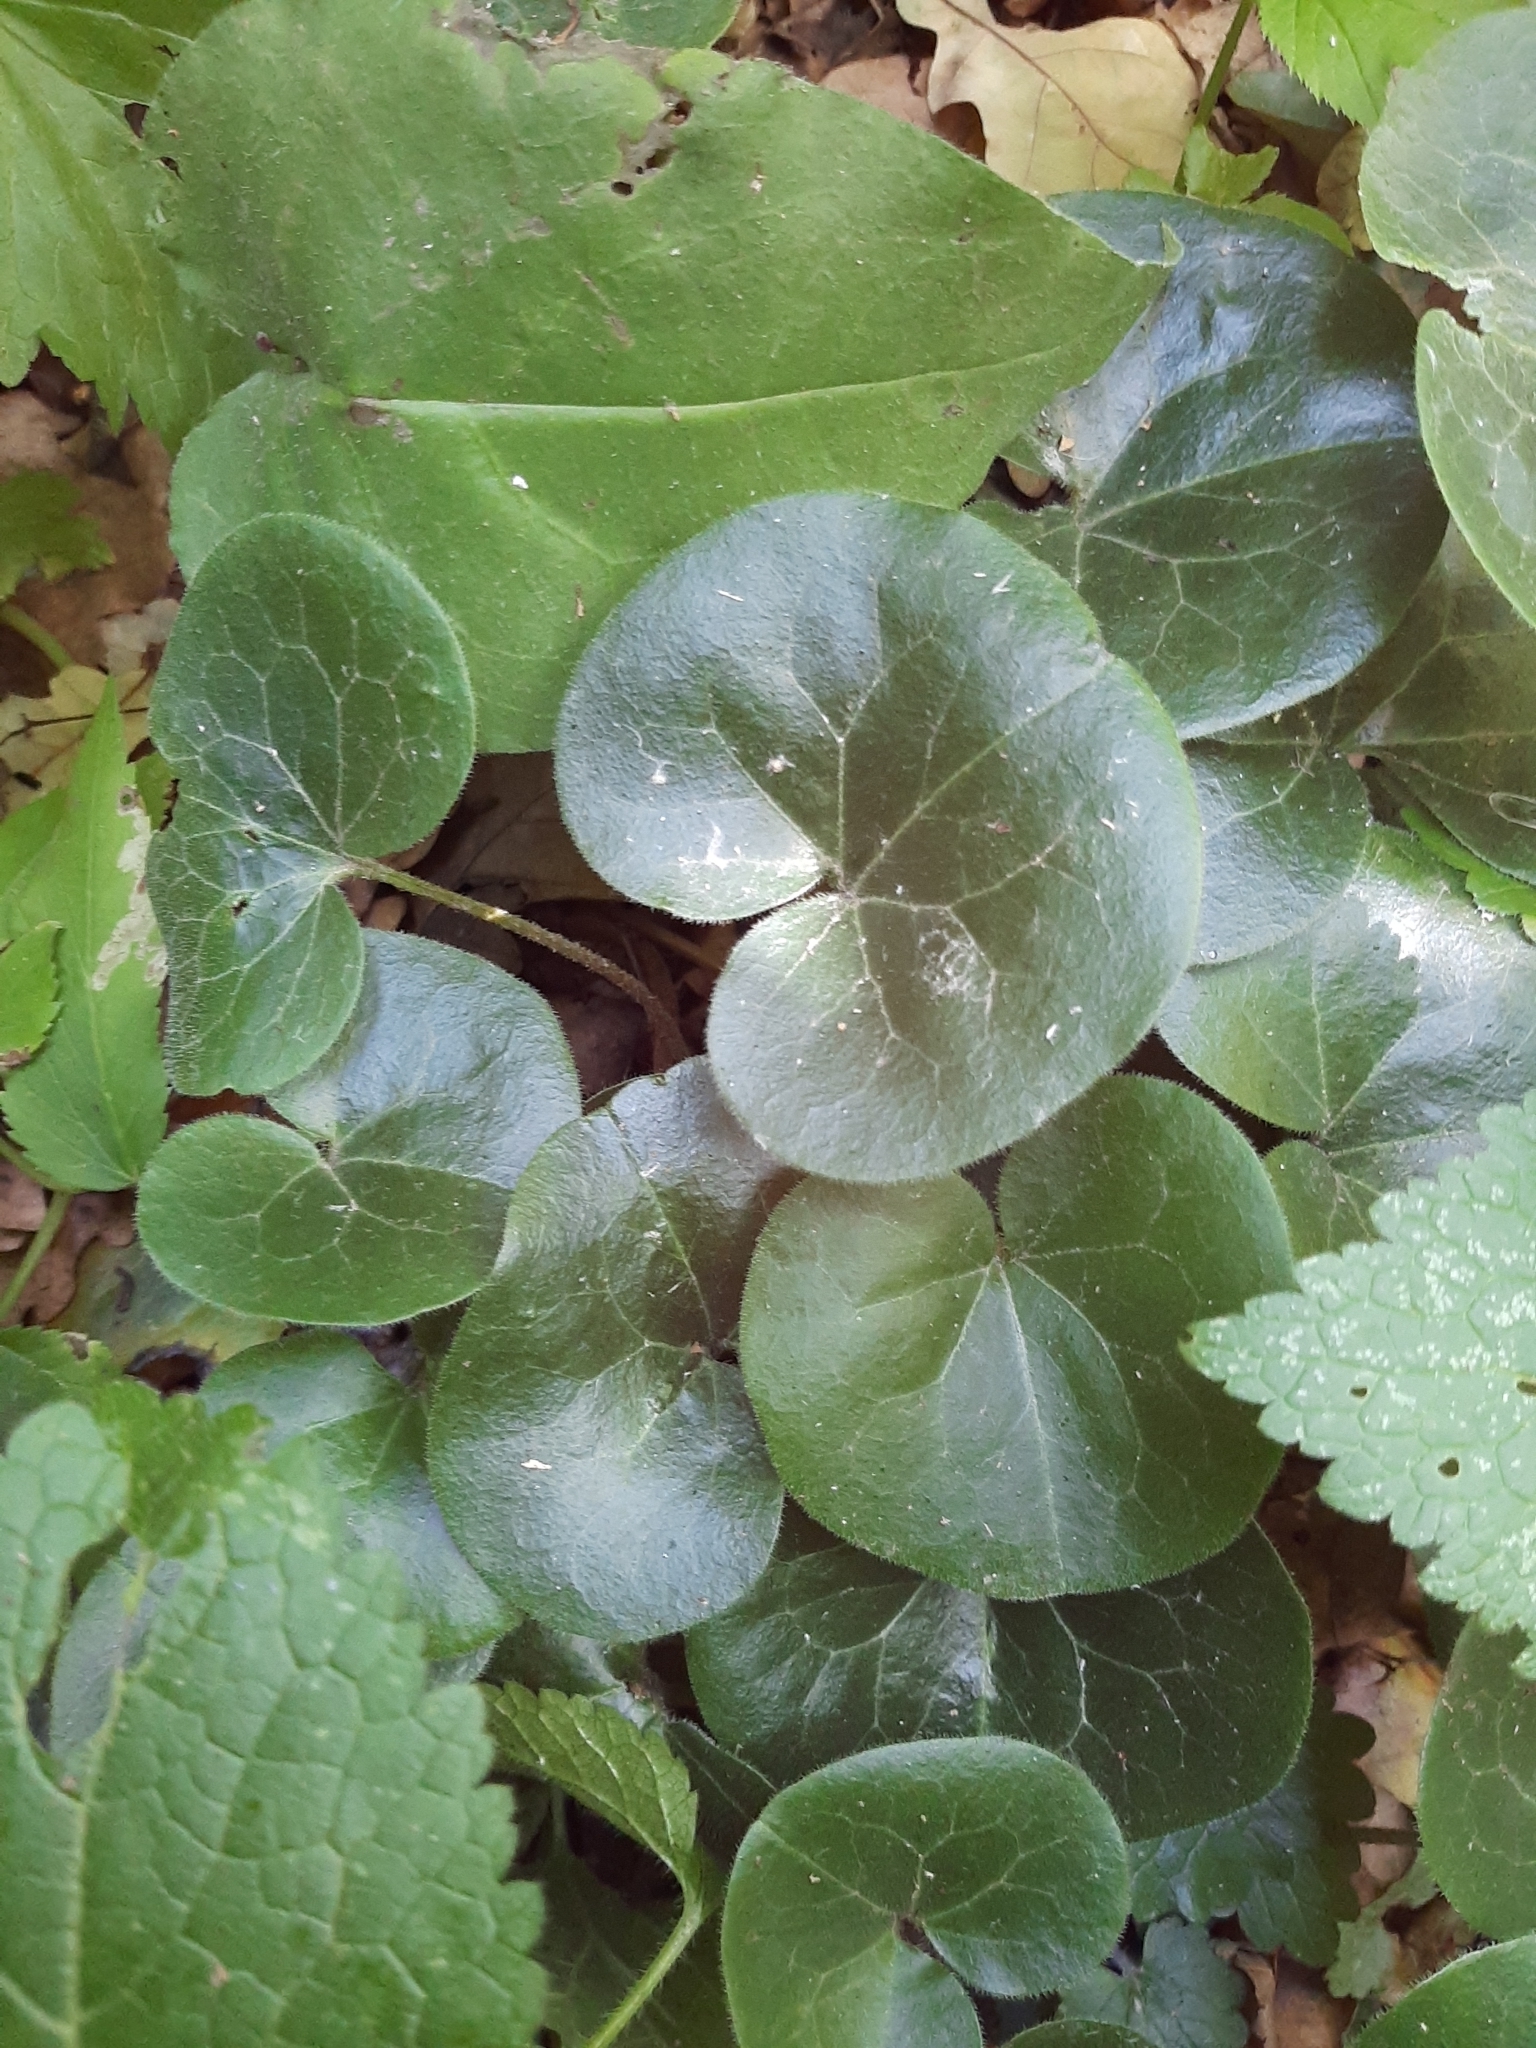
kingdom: Plantae
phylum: Tracheophyta
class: Magnoliopsida
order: Piperales
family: Aristolochiaceae
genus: Asarum
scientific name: Asarum europaeum
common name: Asarabacca
